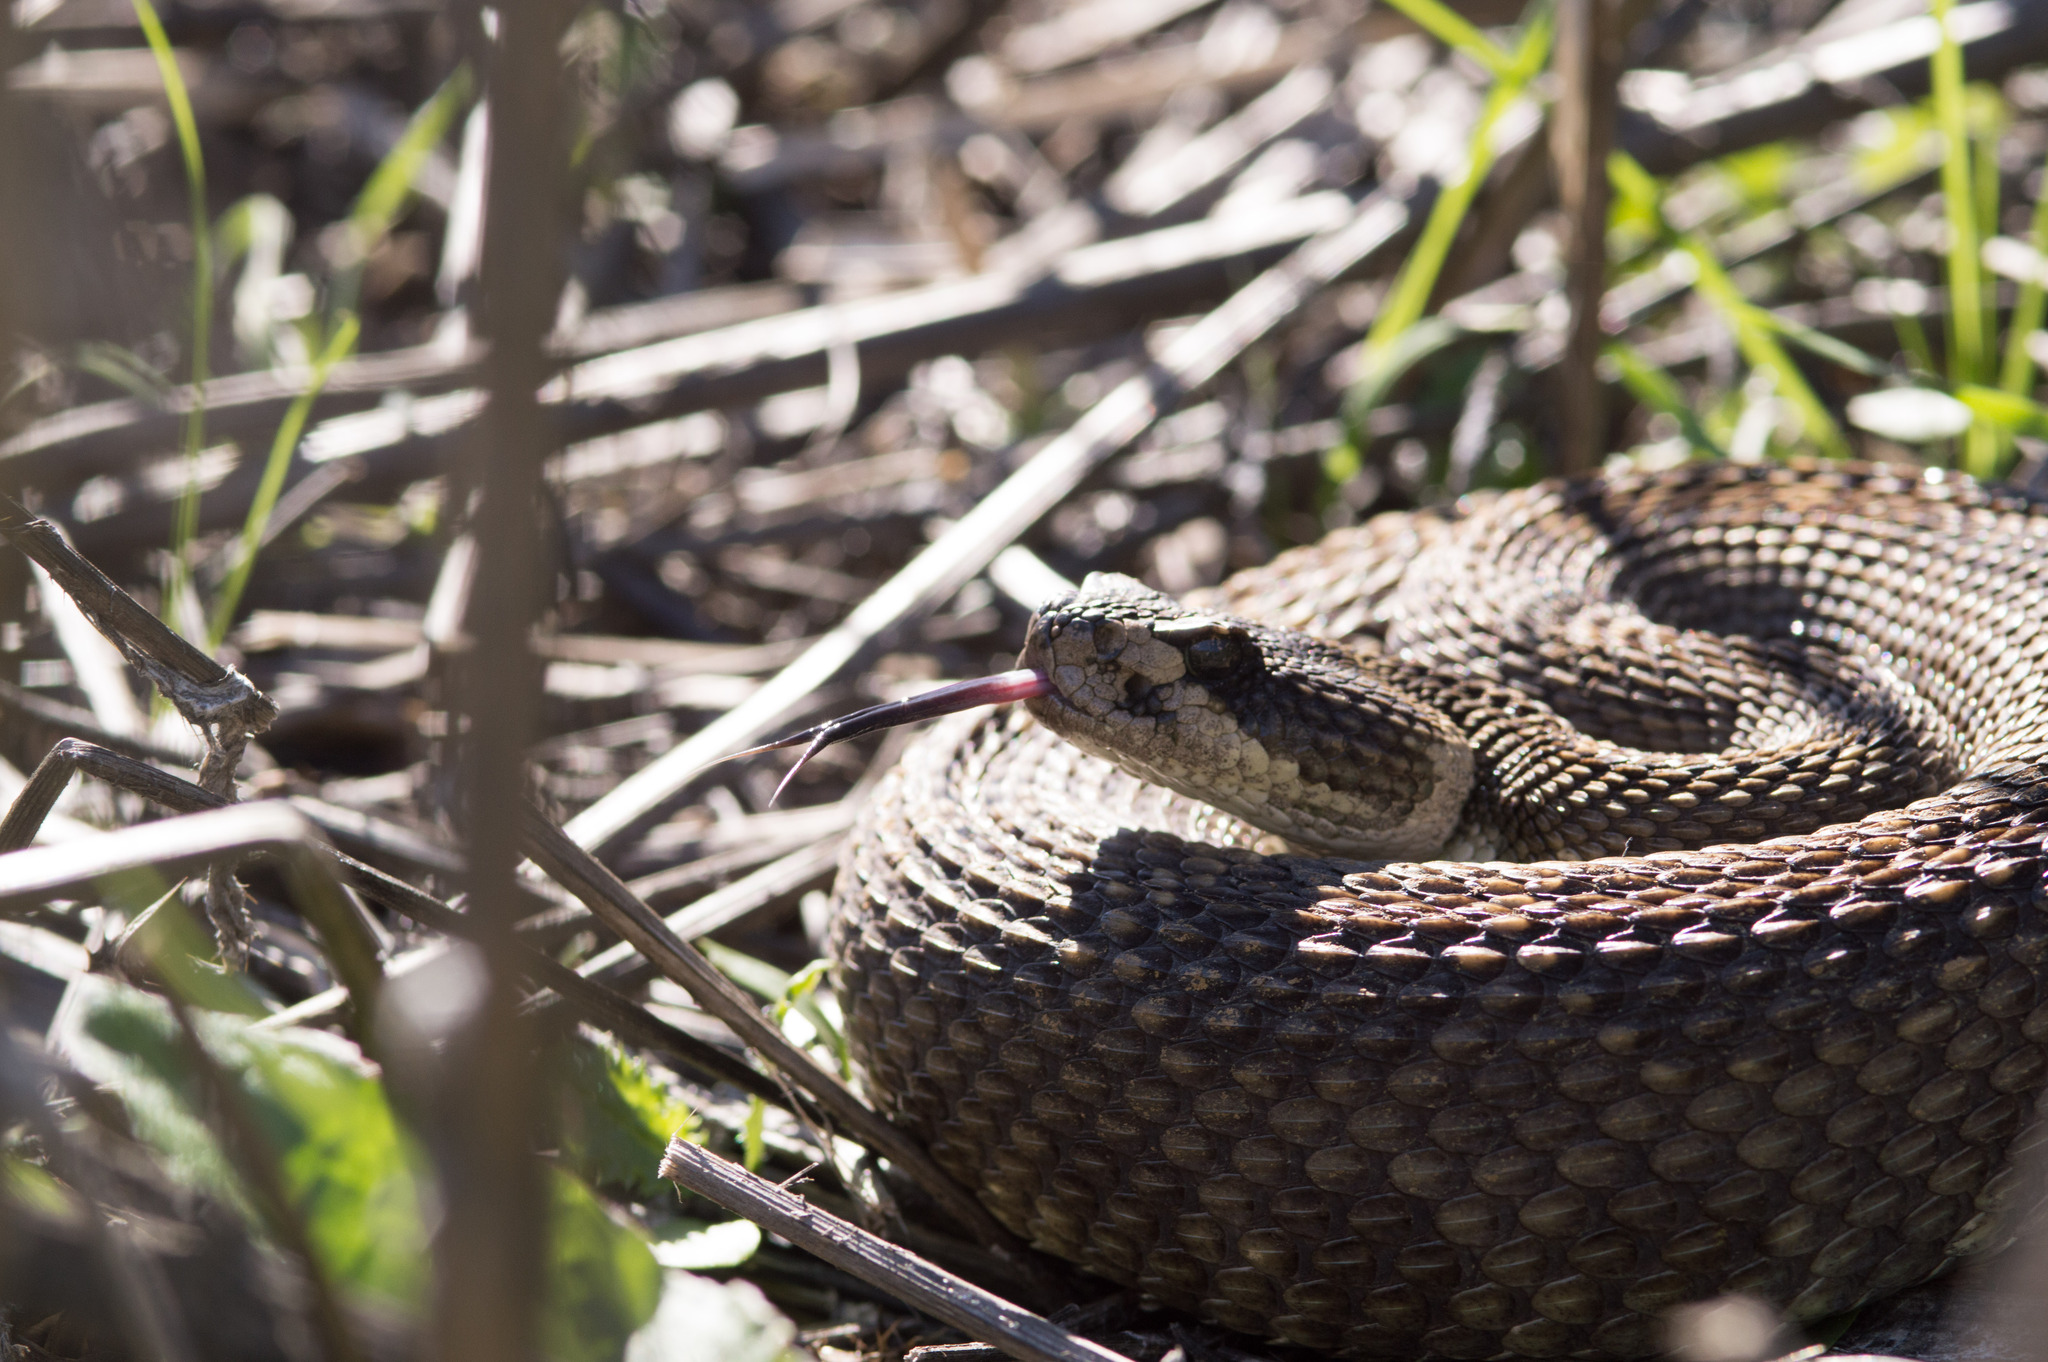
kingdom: Animalia
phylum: Chordata
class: Squamata
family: Viperidae
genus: Crotalus
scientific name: Crotalus oreganus
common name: Abyssus
